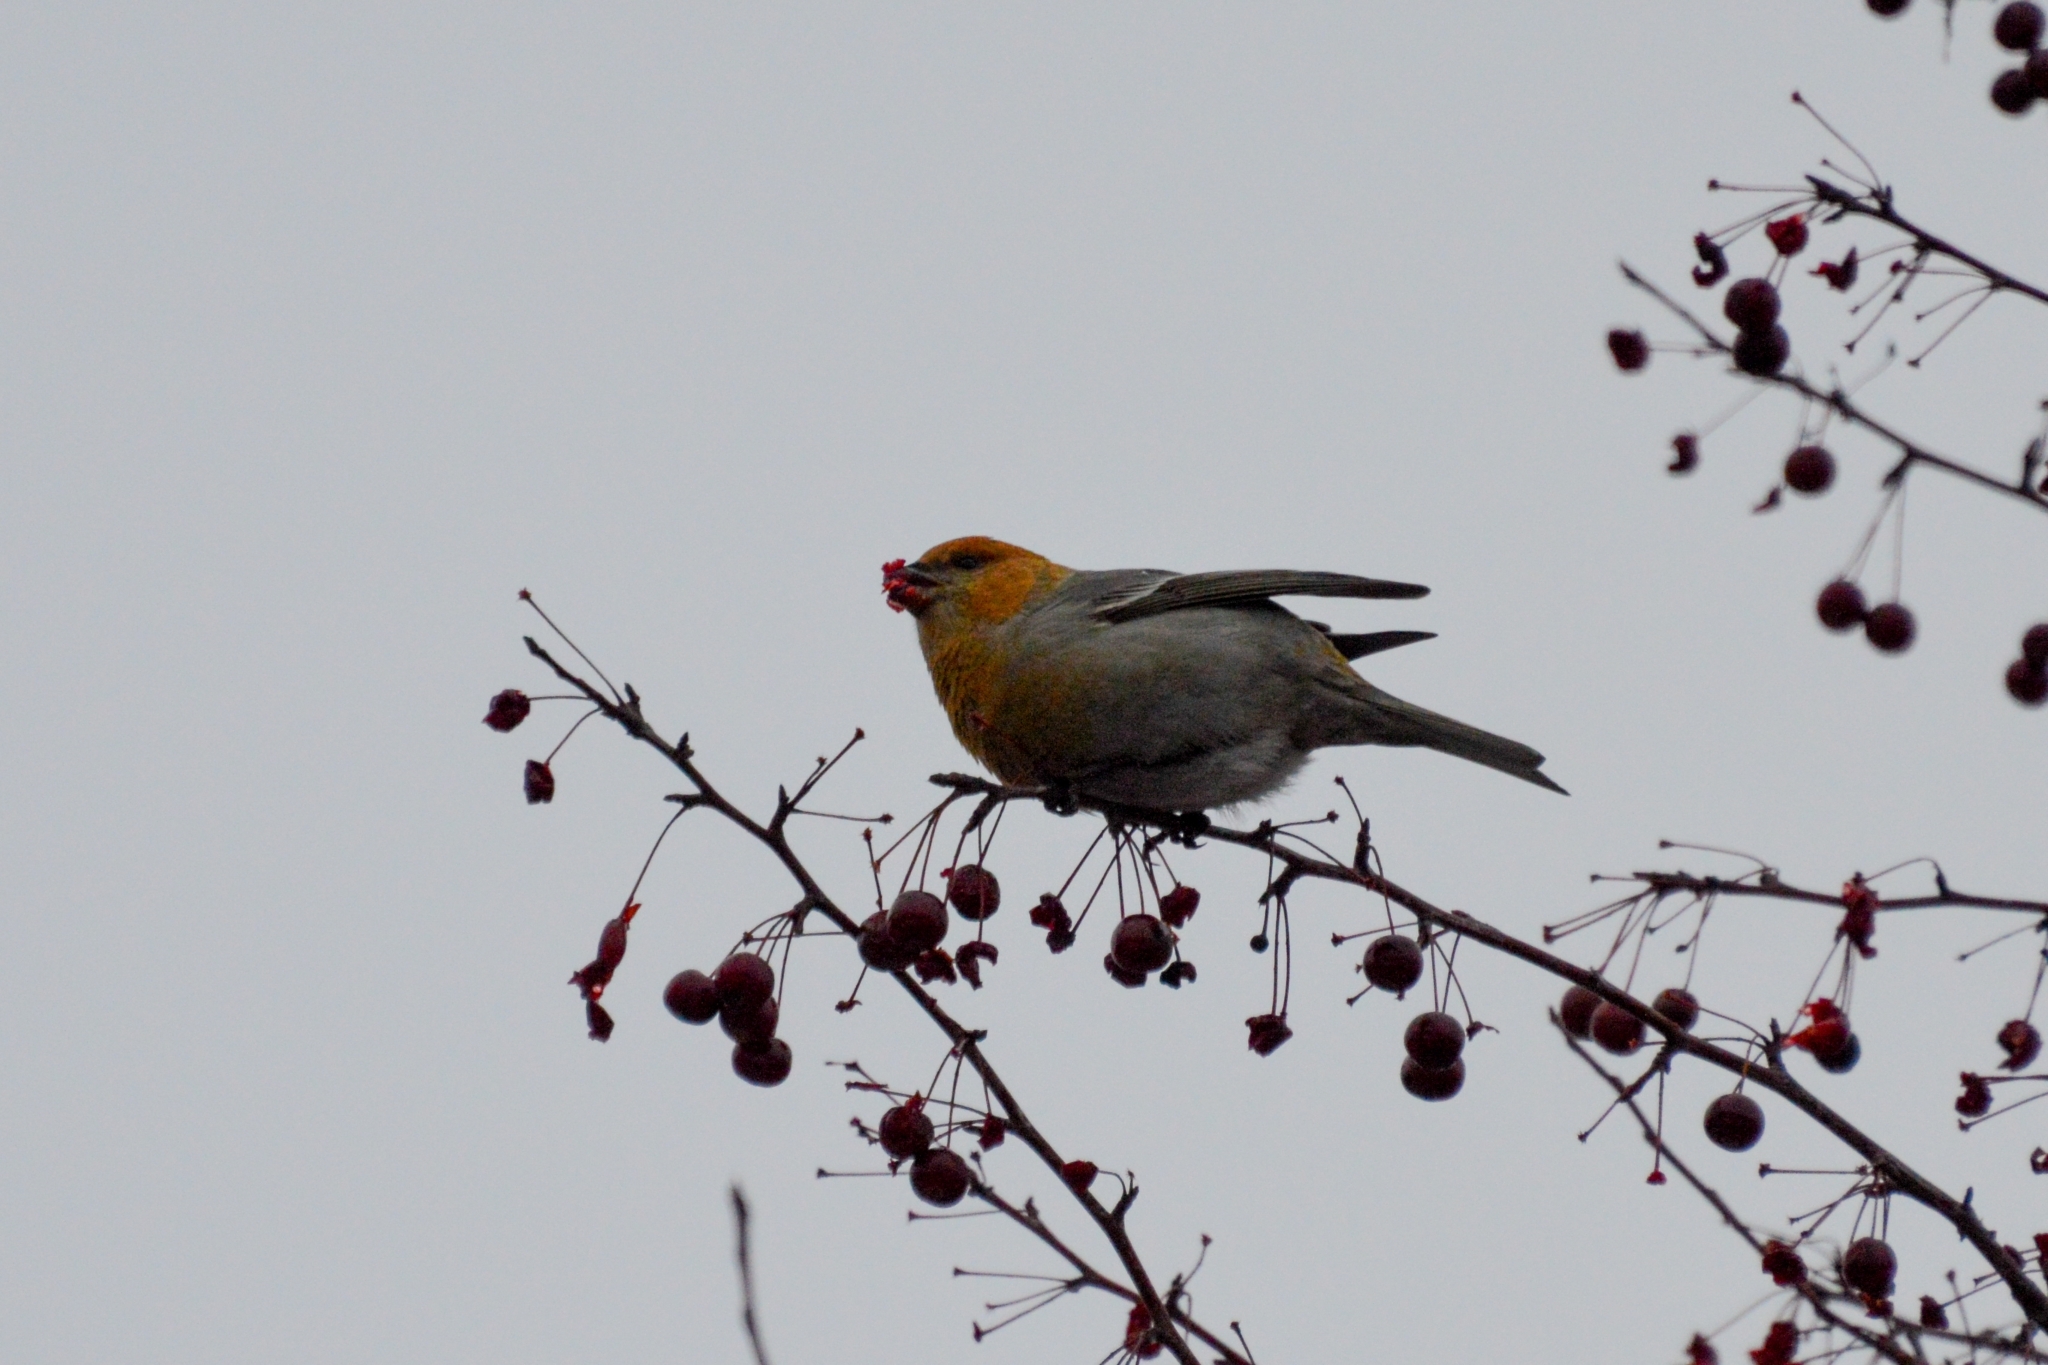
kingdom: Animalia
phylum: Chordata
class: Aves
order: Passeriformes
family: Fringillidae
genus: Pinicola
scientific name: Pinicola enucleator
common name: Pine grosbeak
